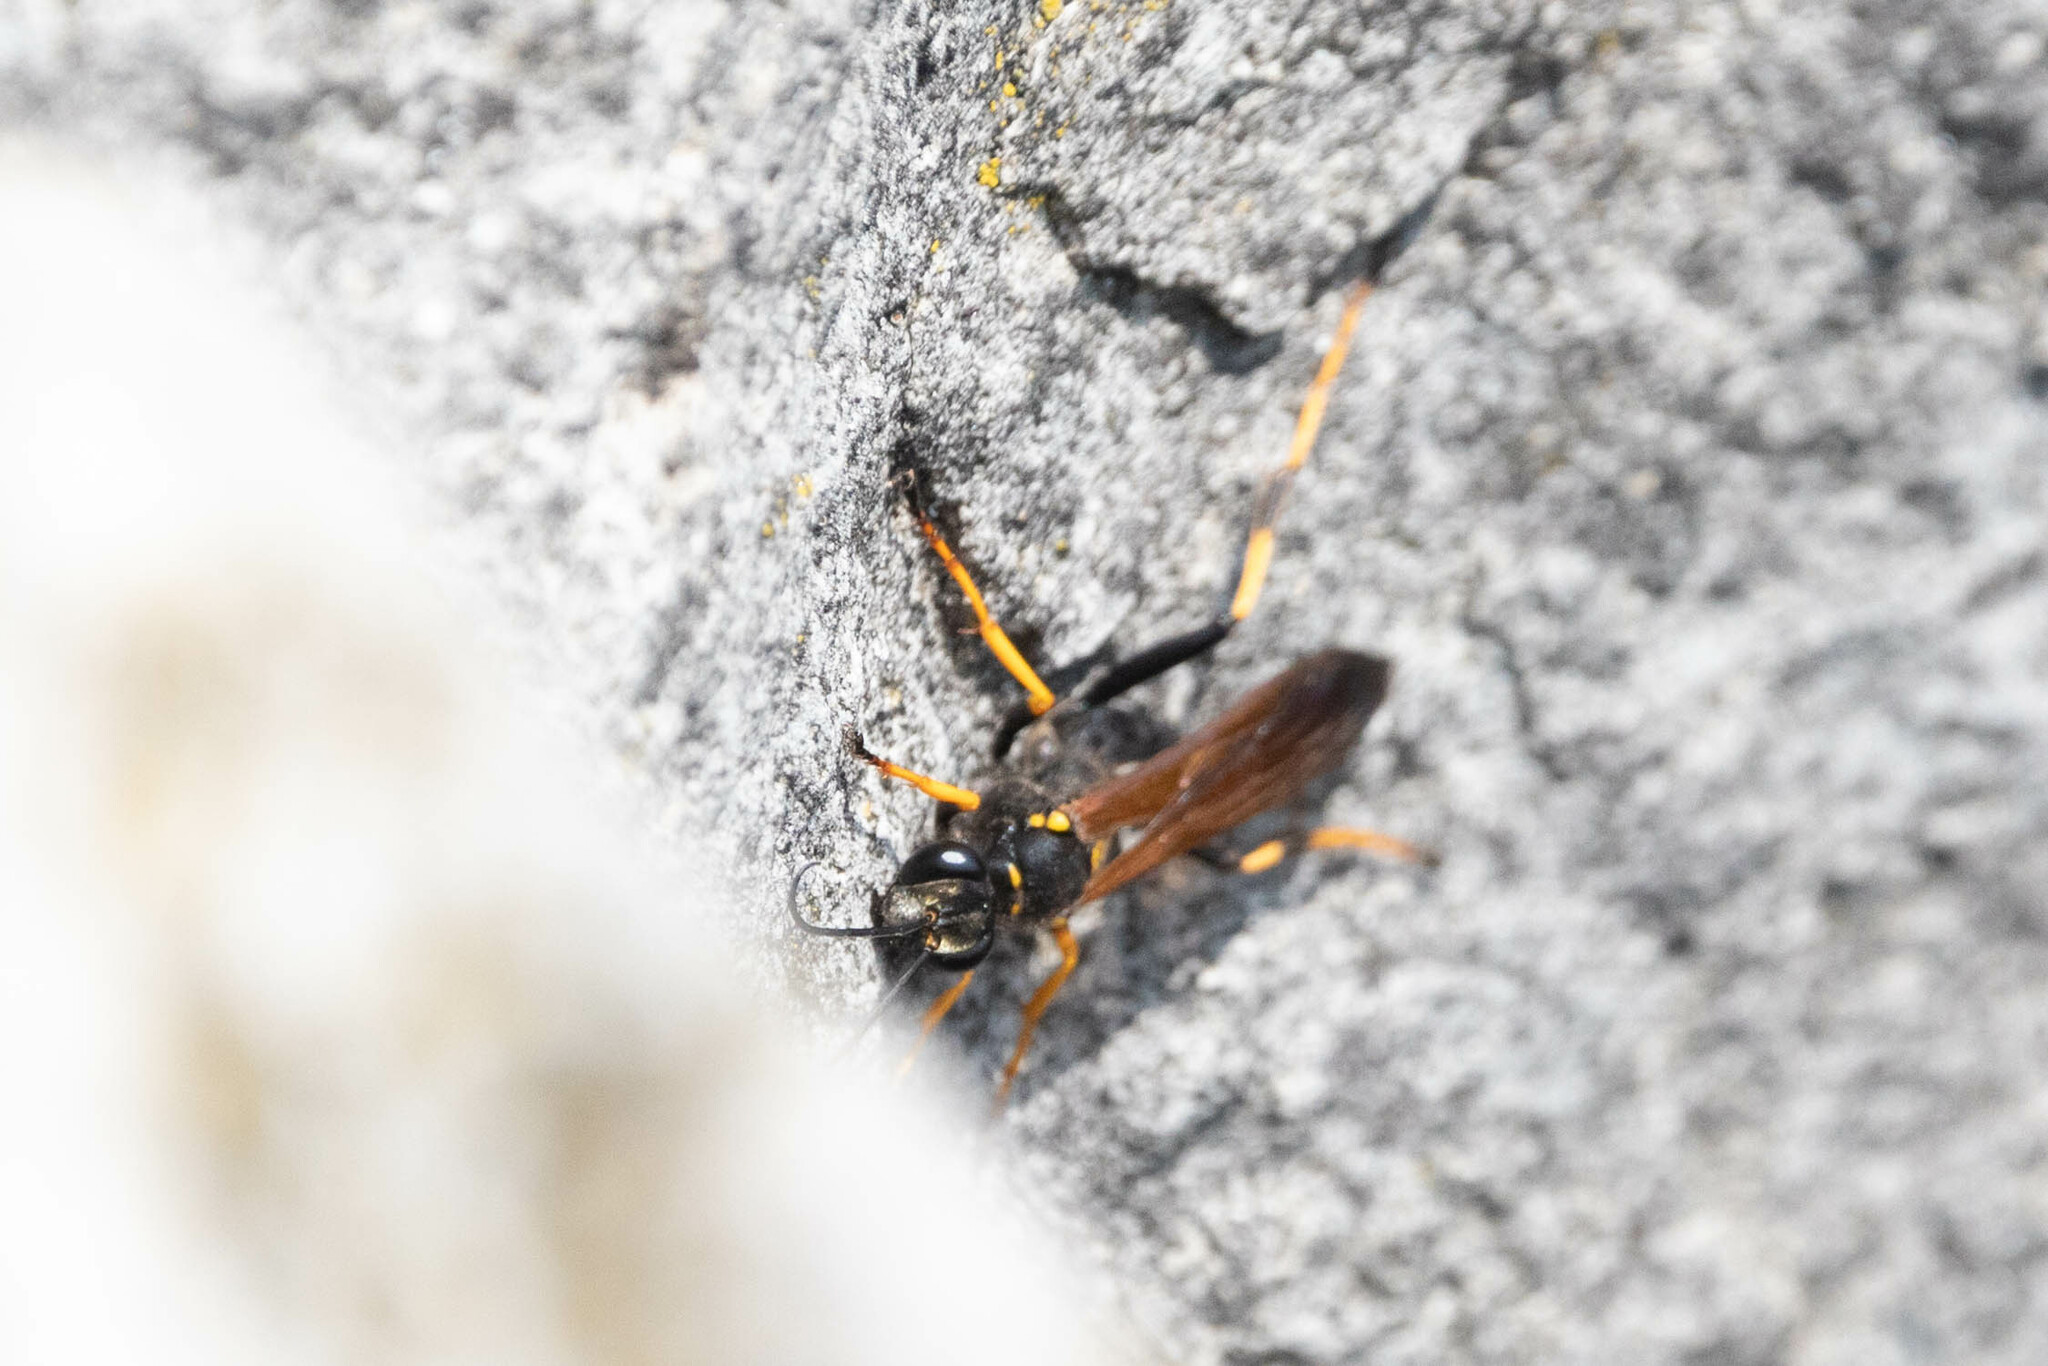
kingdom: Animalia
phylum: Arthropoda
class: Insecta
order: Hymenoptera
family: Sphecidae
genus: Sceliphron
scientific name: Sceliphron caementarium
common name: Mud dauber
